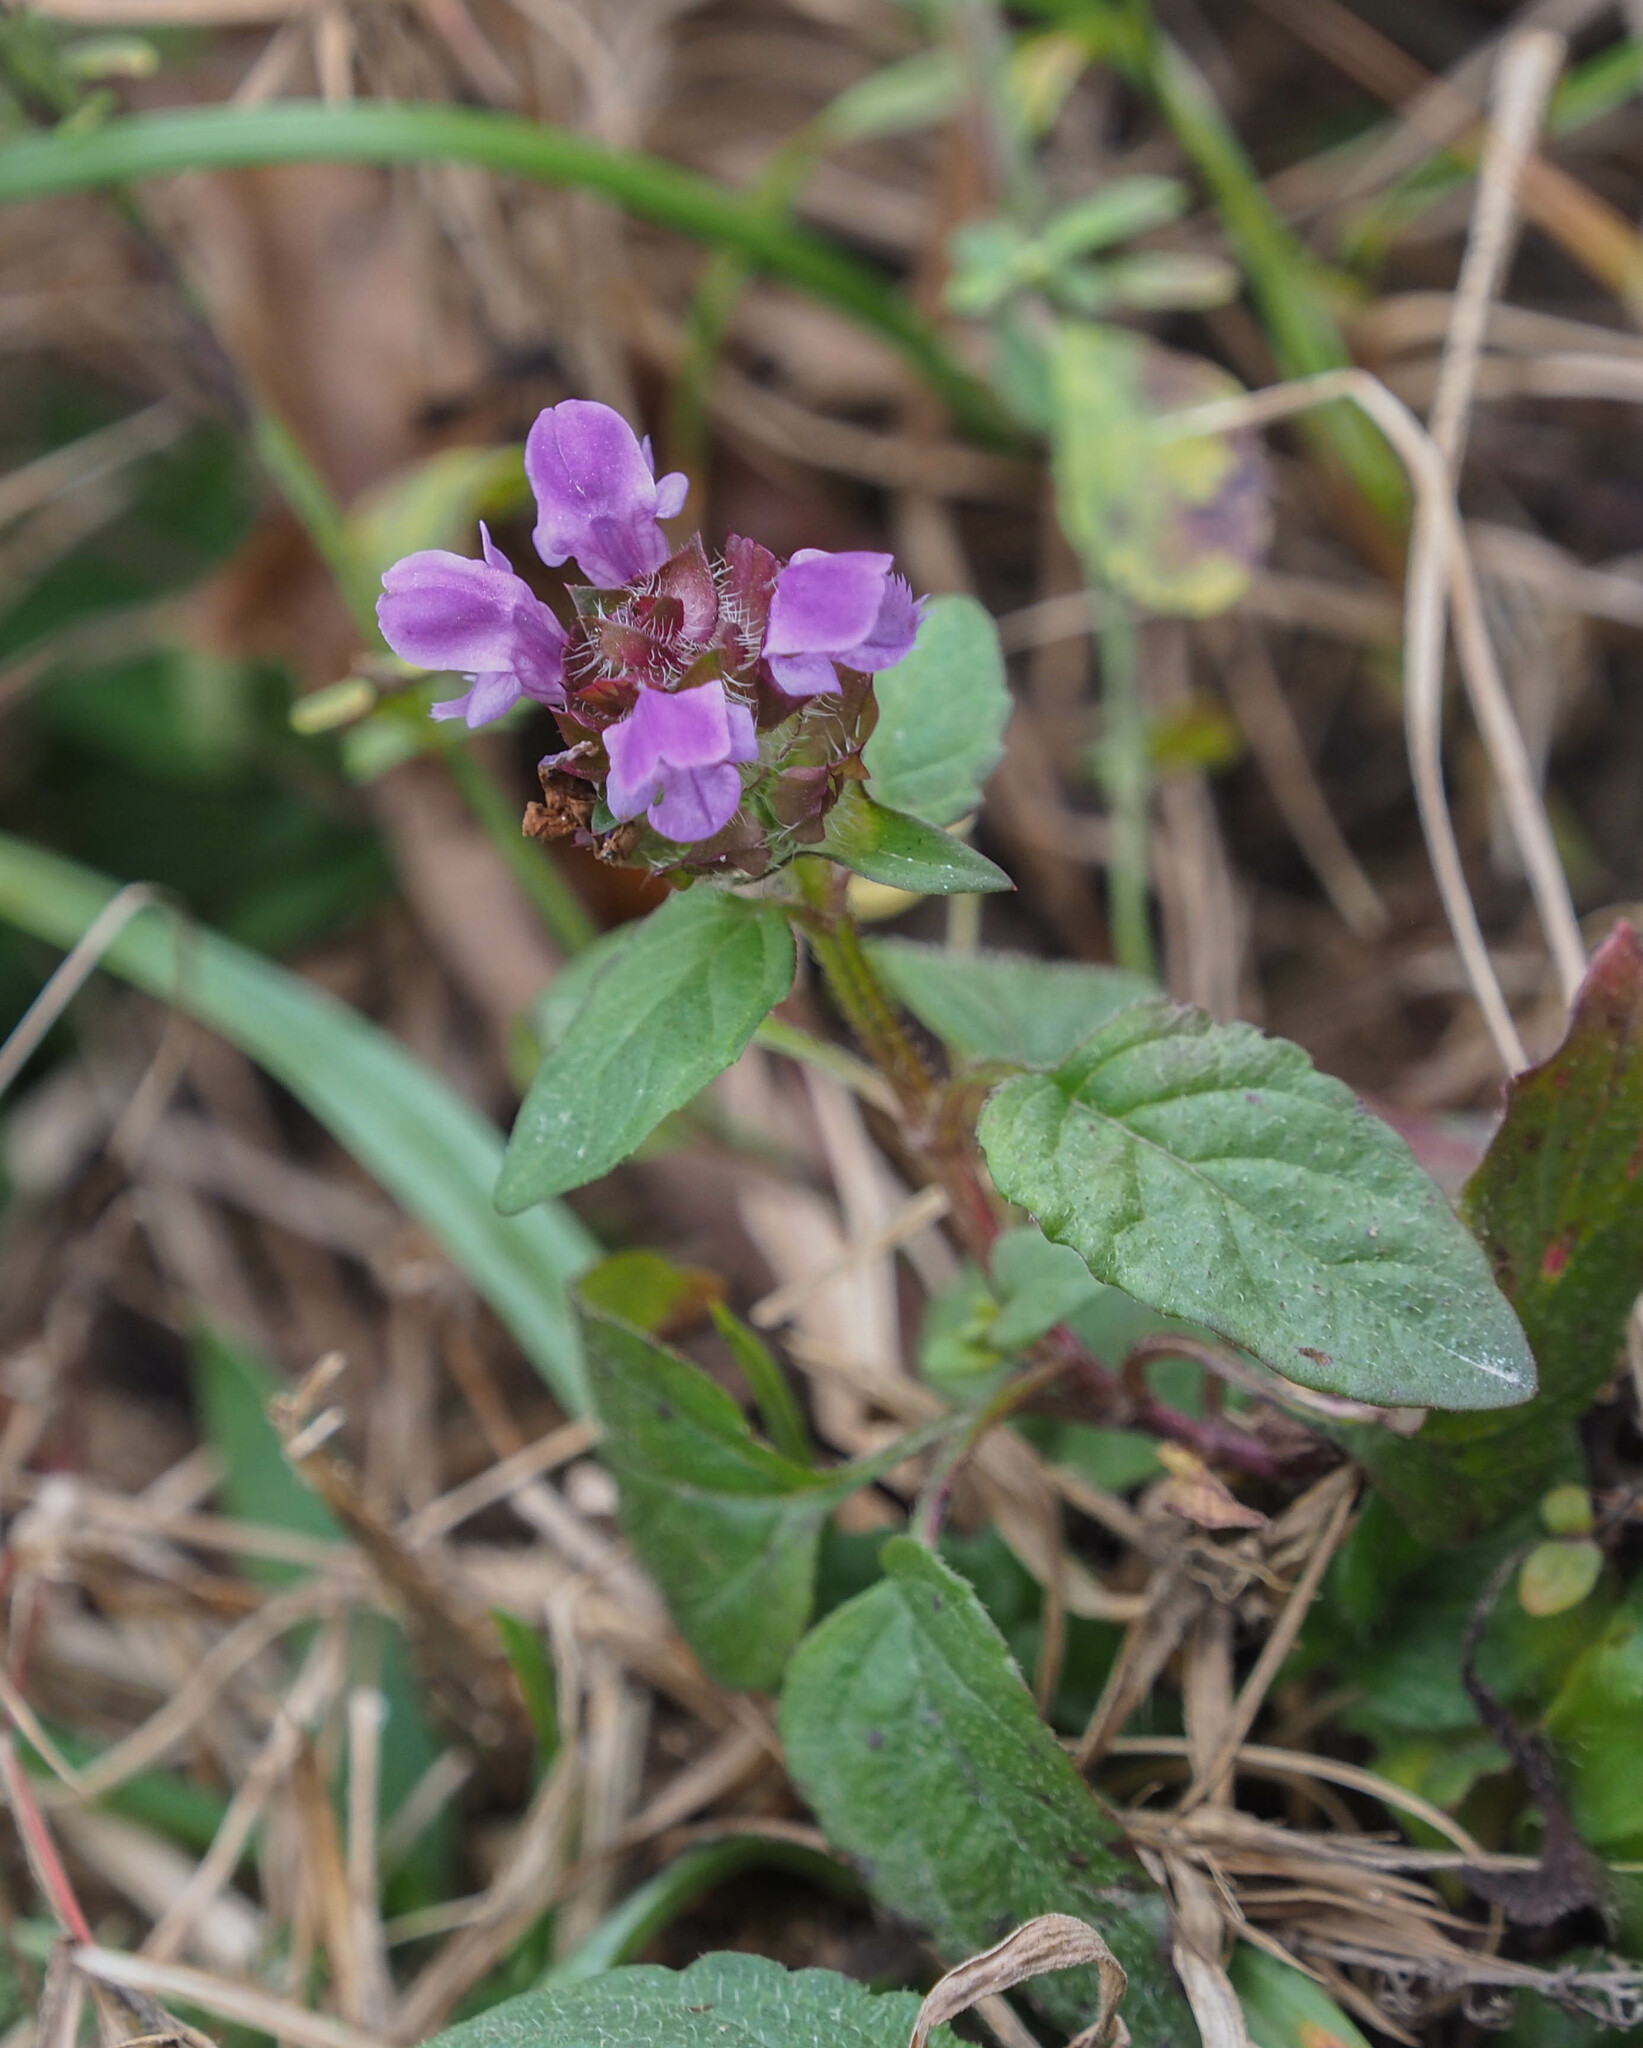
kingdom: Plantae
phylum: Tracheophyta
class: Magnoliopsida
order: Lamiales
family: Lamiaceae
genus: Prunella
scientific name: Prunella vulgaris
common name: Heal-all
